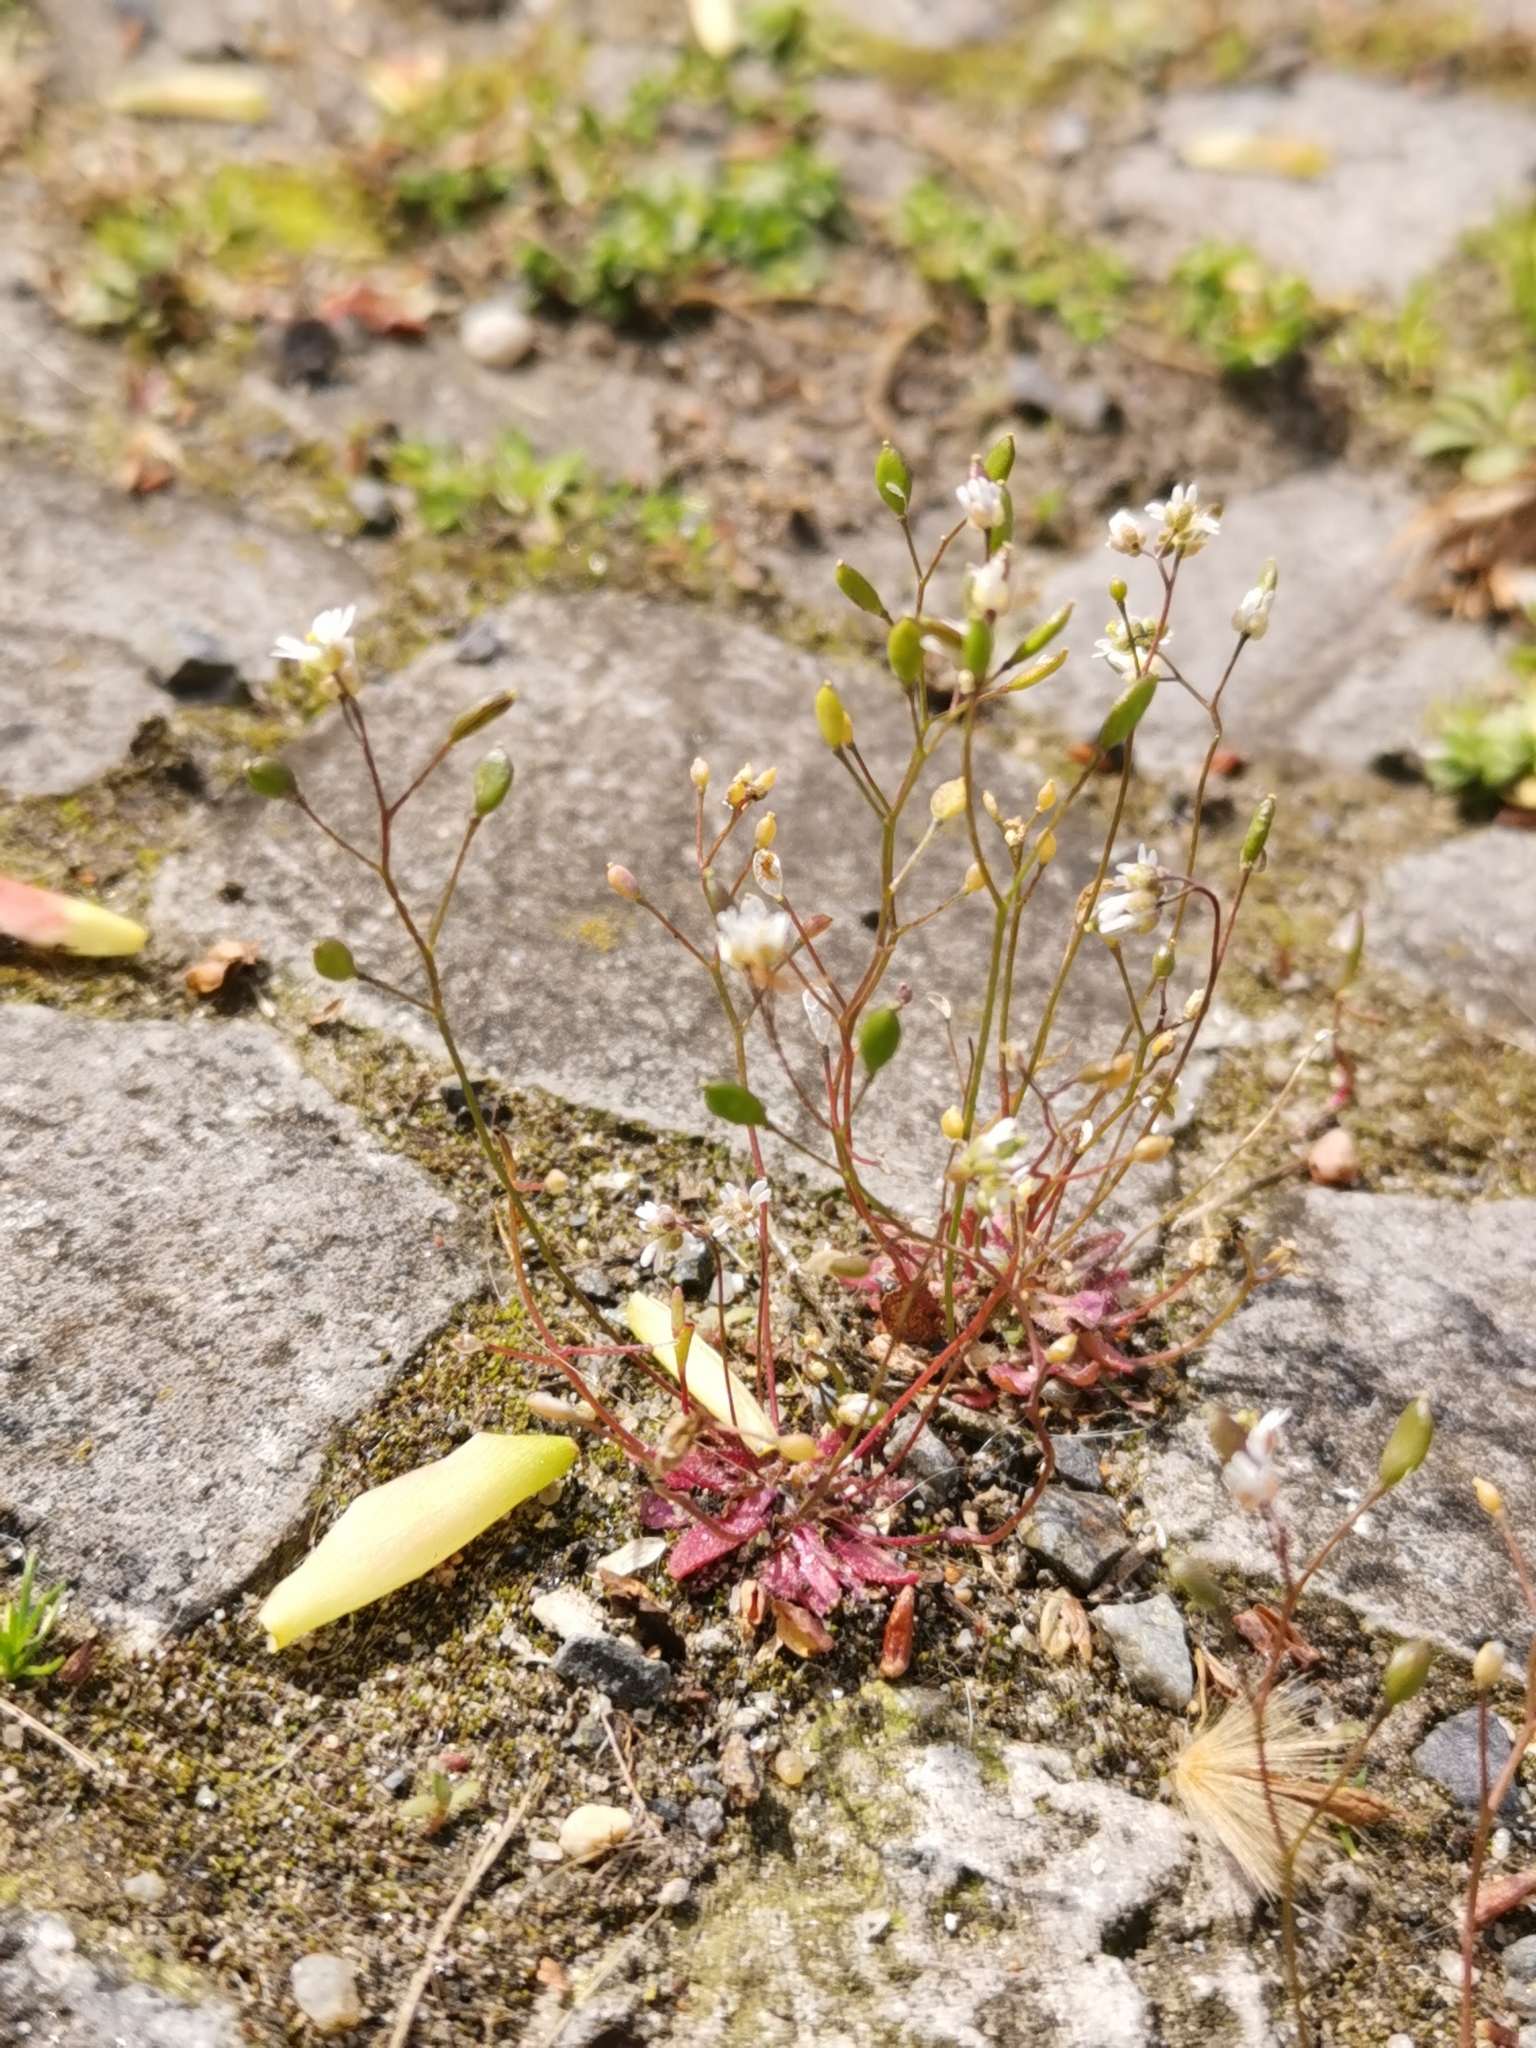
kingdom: Plantae
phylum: Tracheophyta
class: Magnoliopsida
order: Brassicales
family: Brassicaceae
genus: Draba
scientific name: Draba verna
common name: Spring draba
